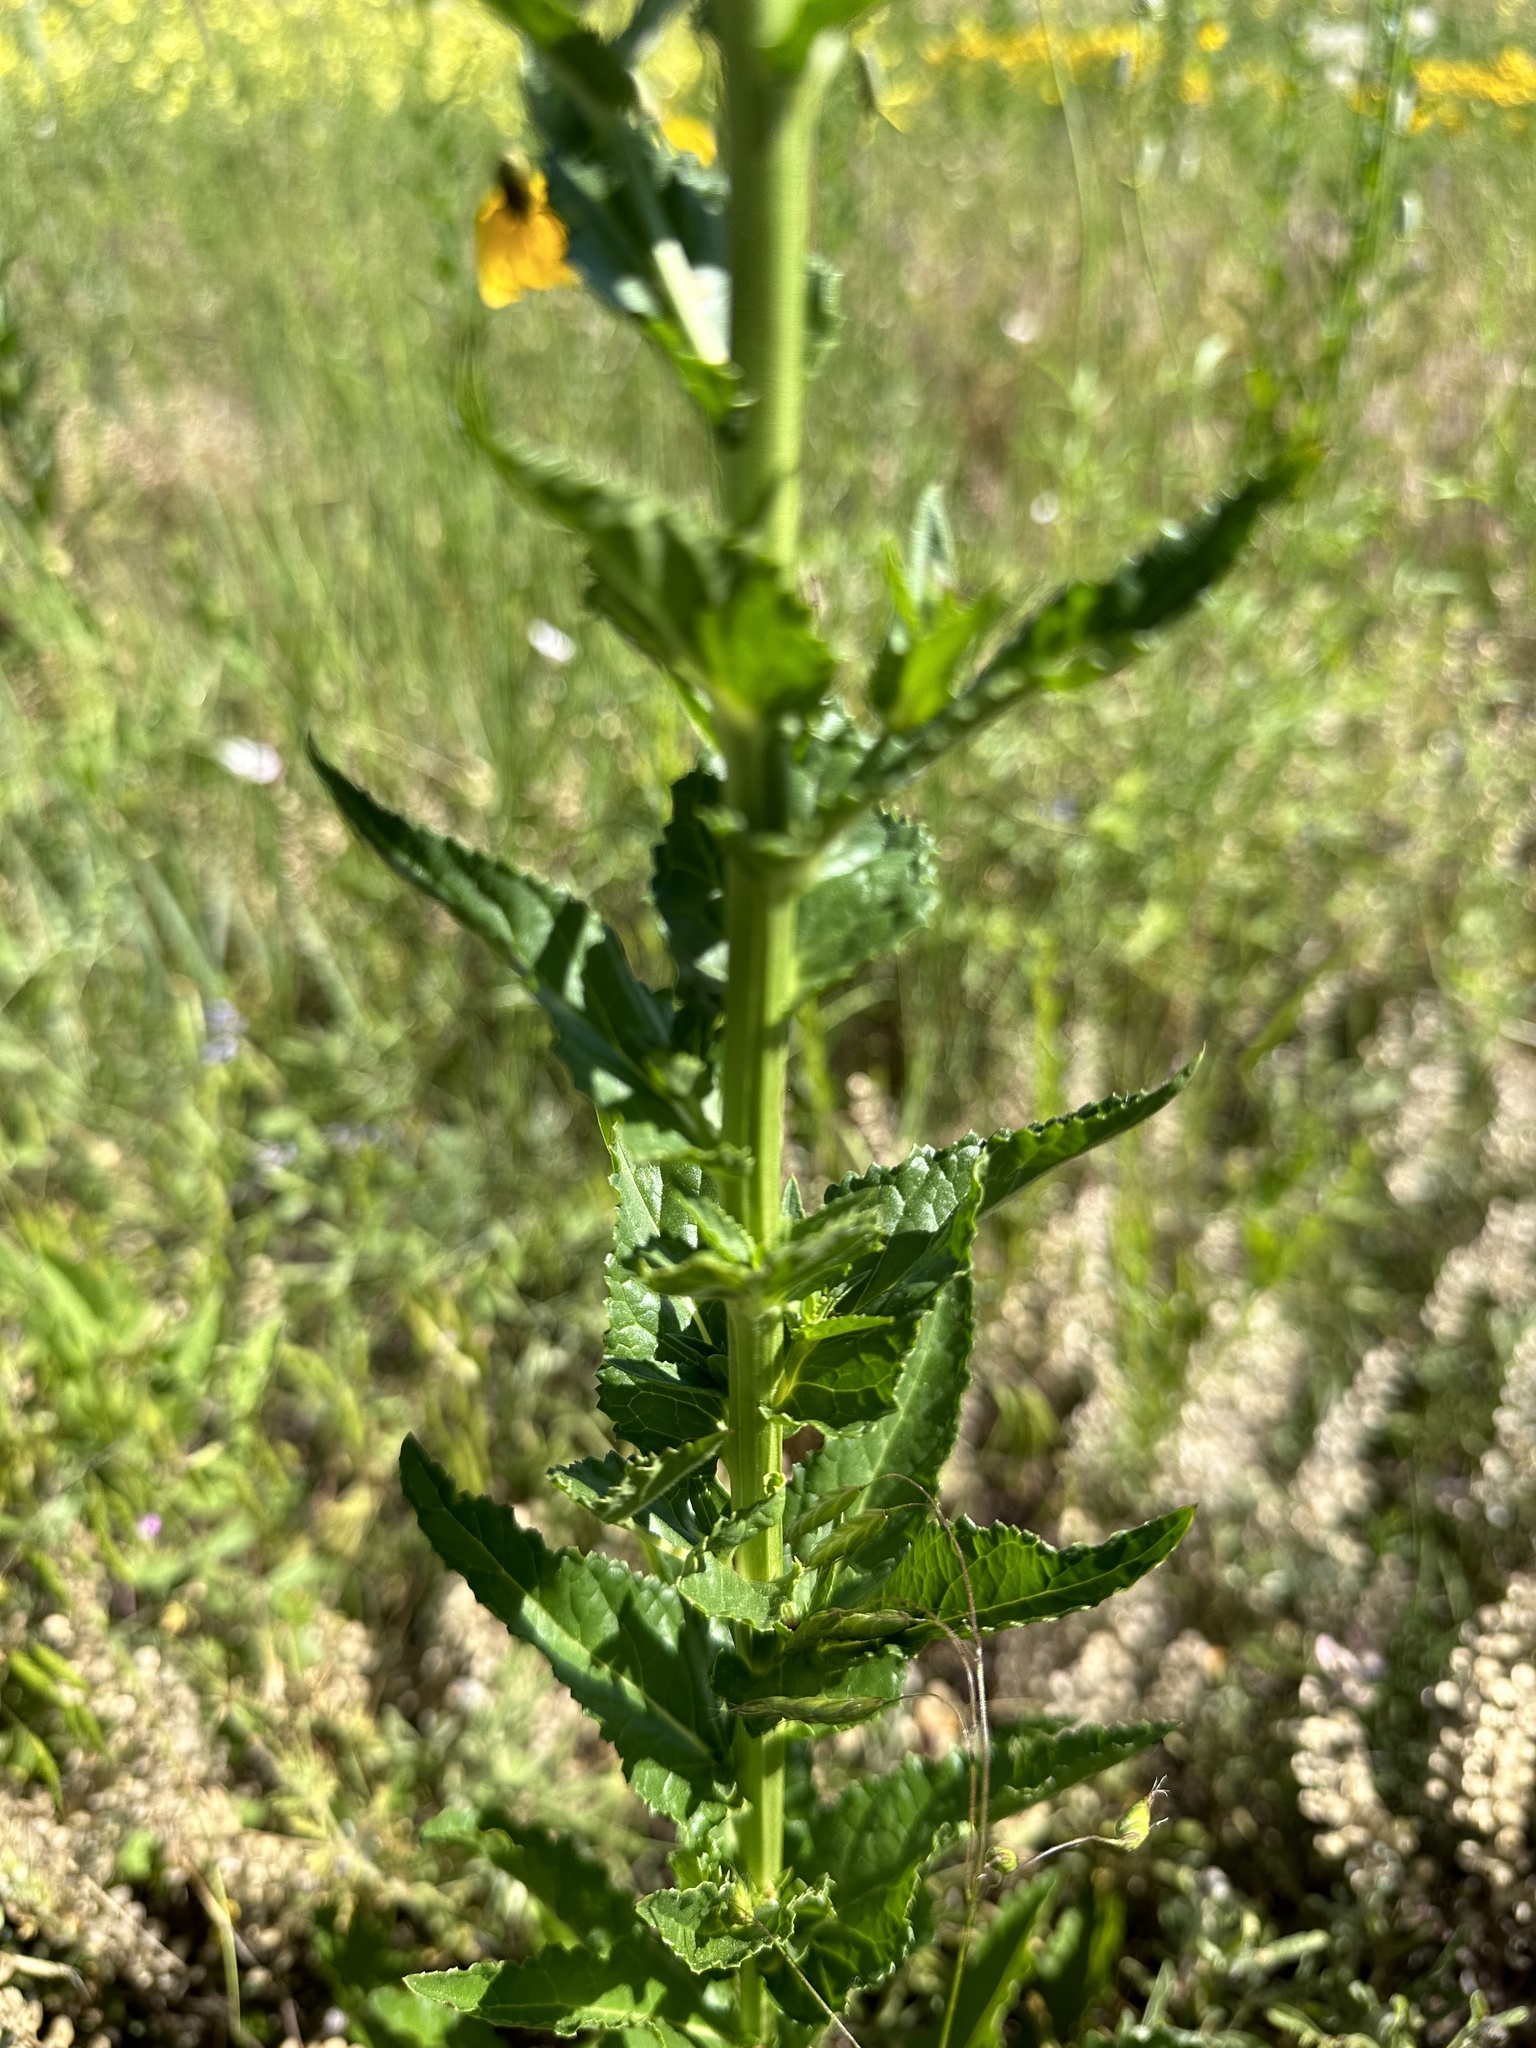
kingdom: Plantae
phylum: Tracheophyta
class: Magnoliopsida
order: Lamiales
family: Scrophulariaceae
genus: Verbascum
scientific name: Verbascum blattaria
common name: Moth mullein
